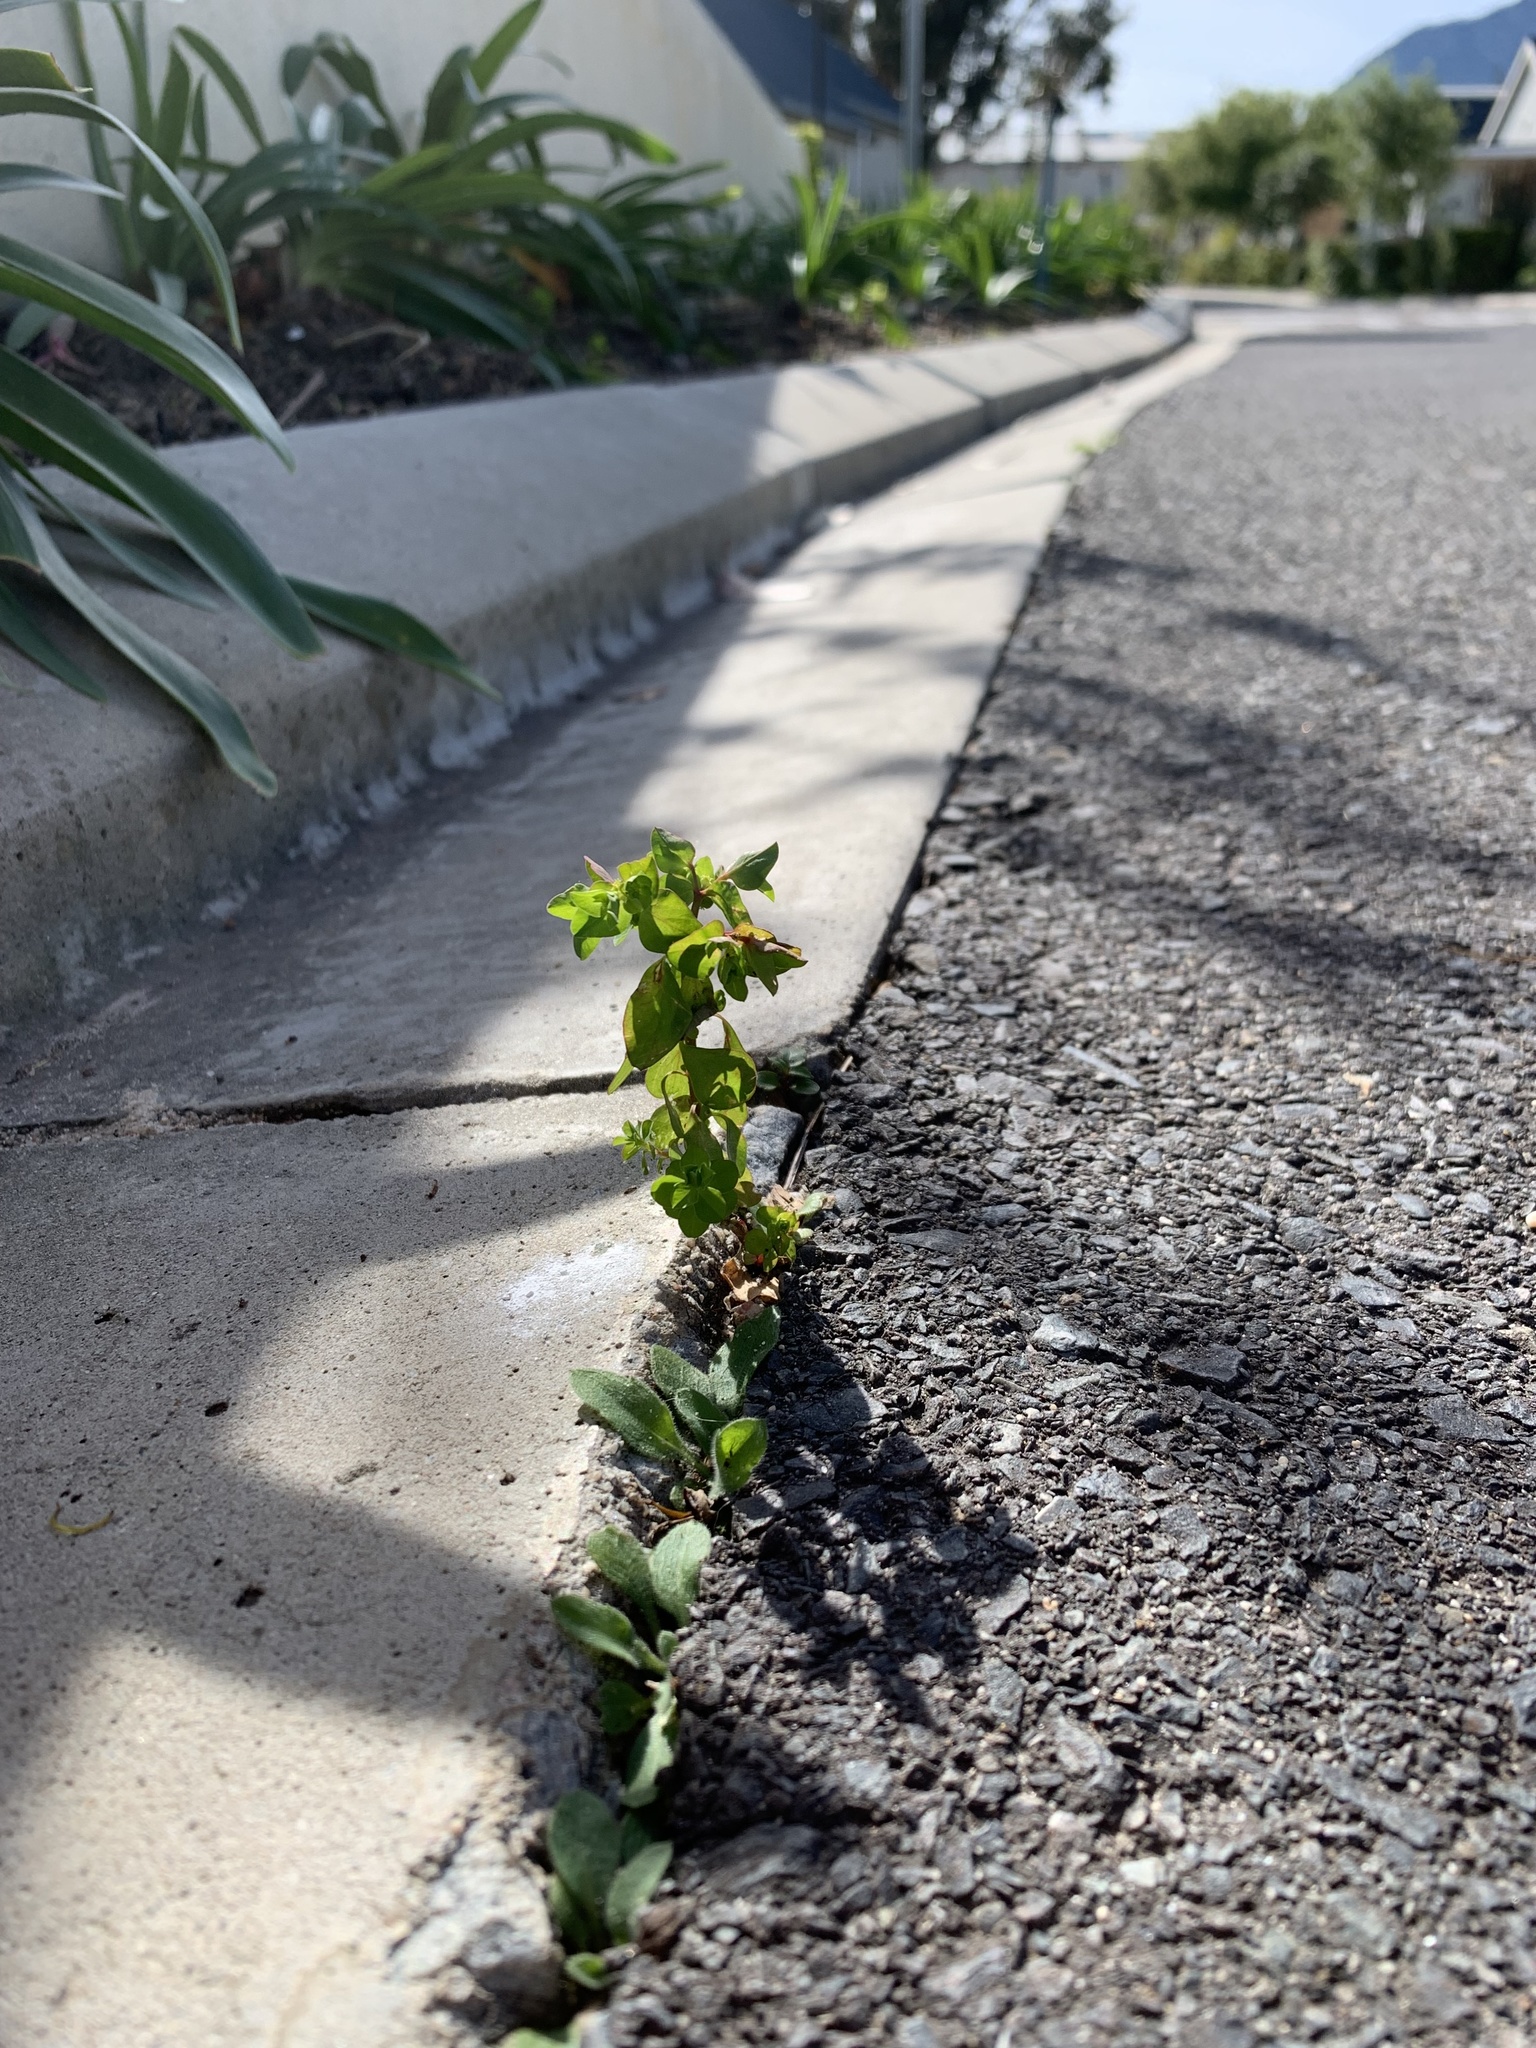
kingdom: Plantae
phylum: Tracheophyta
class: Magnoliopsida
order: Malpighiales
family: Euphorbiaceae
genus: Euphorbia
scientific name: Euphorbia peplus
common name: Petty spurge
